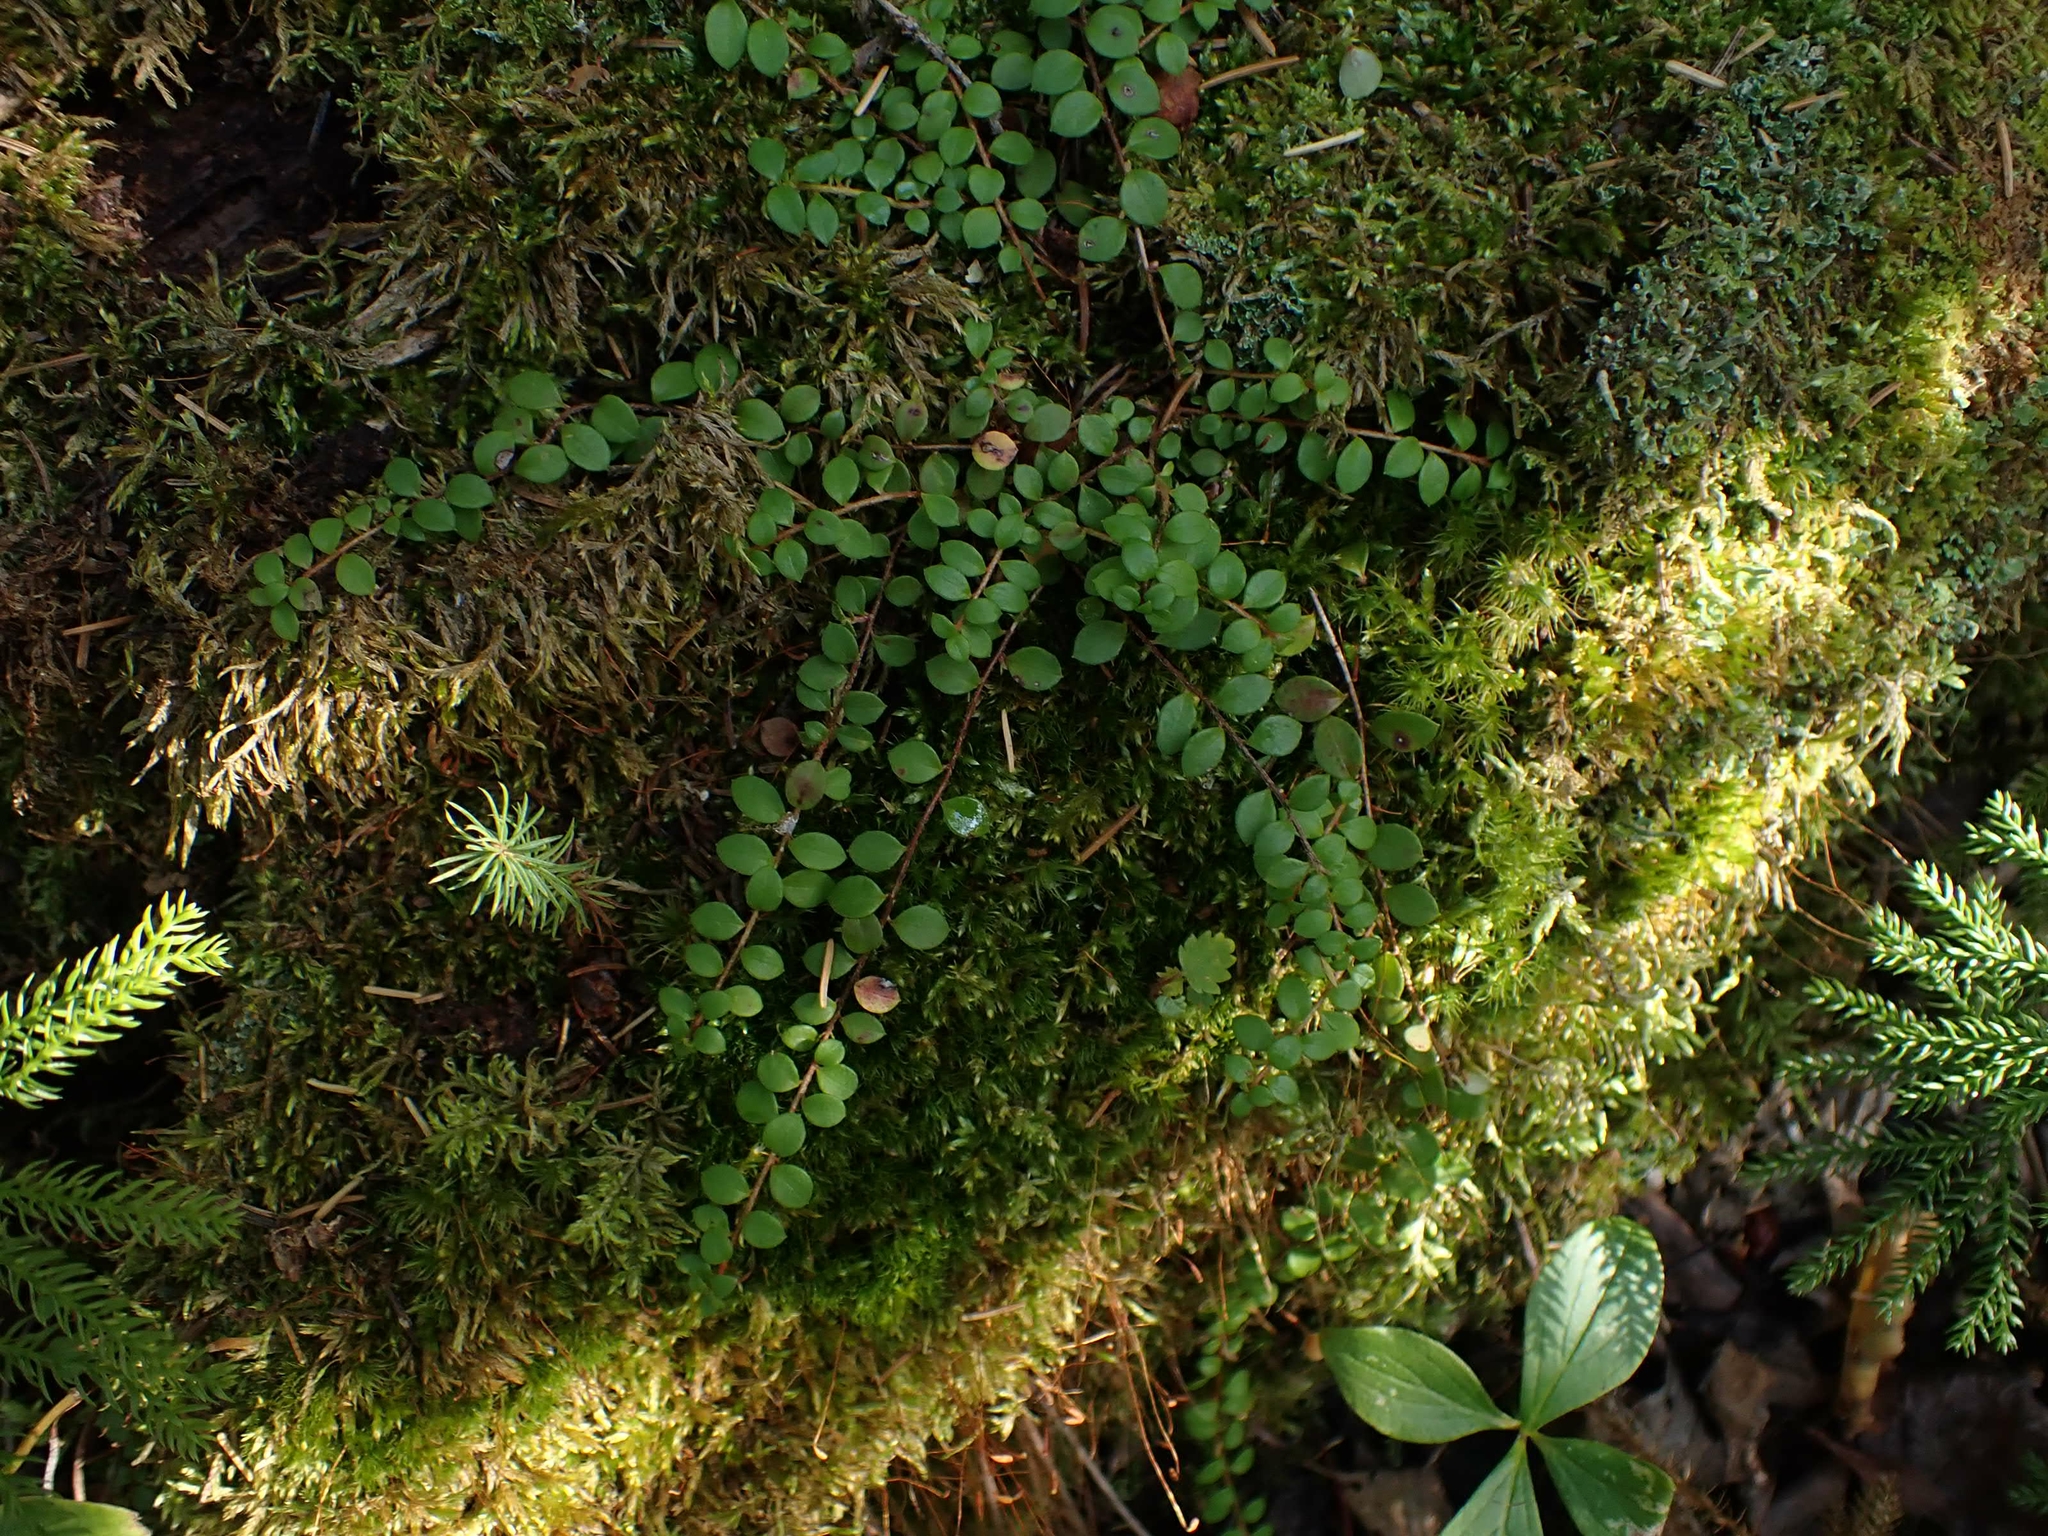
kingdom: Plantae
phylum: Tracheophyta
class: Magnoliopsida
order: Ericales
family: Ericaceae
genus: Gaultheria
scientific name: Gaultheria hispidula
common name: Cancer wintergreen
